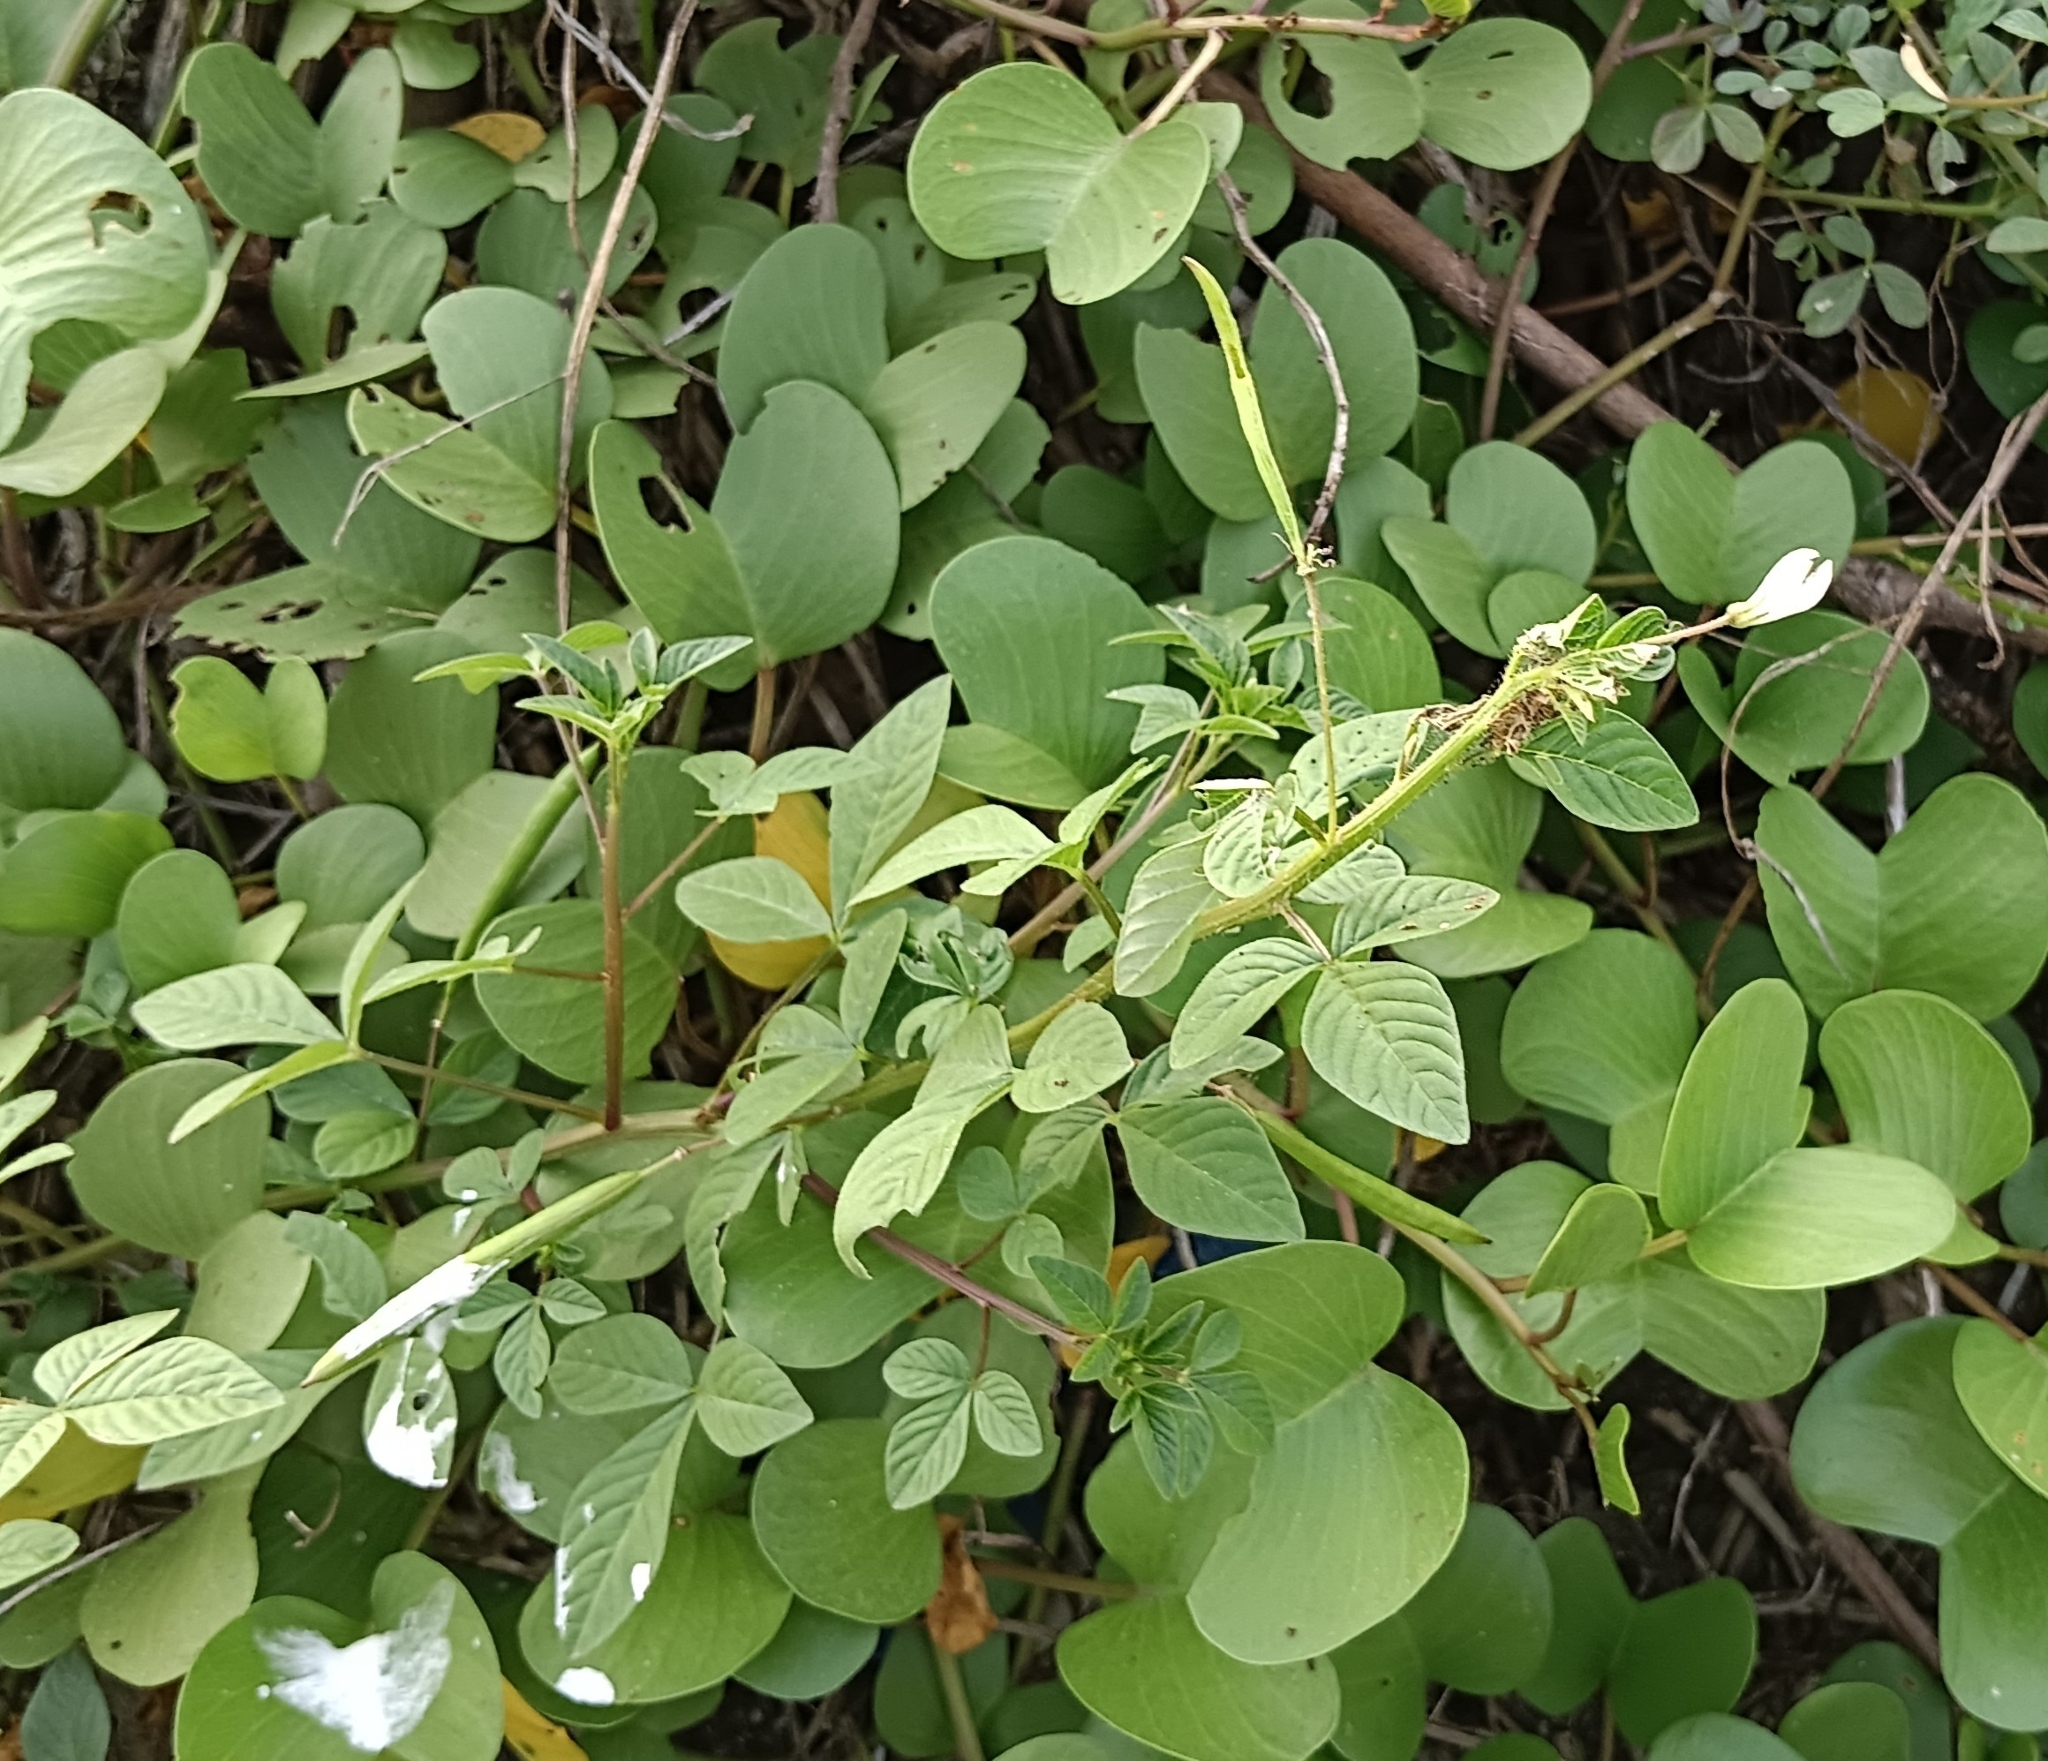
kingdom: Plantae
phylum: Tracheophyta
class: Magnoliopsida
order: Brassicales
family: Cleomaceae
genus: Sieruela
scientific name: Sieruela rutidosperma
